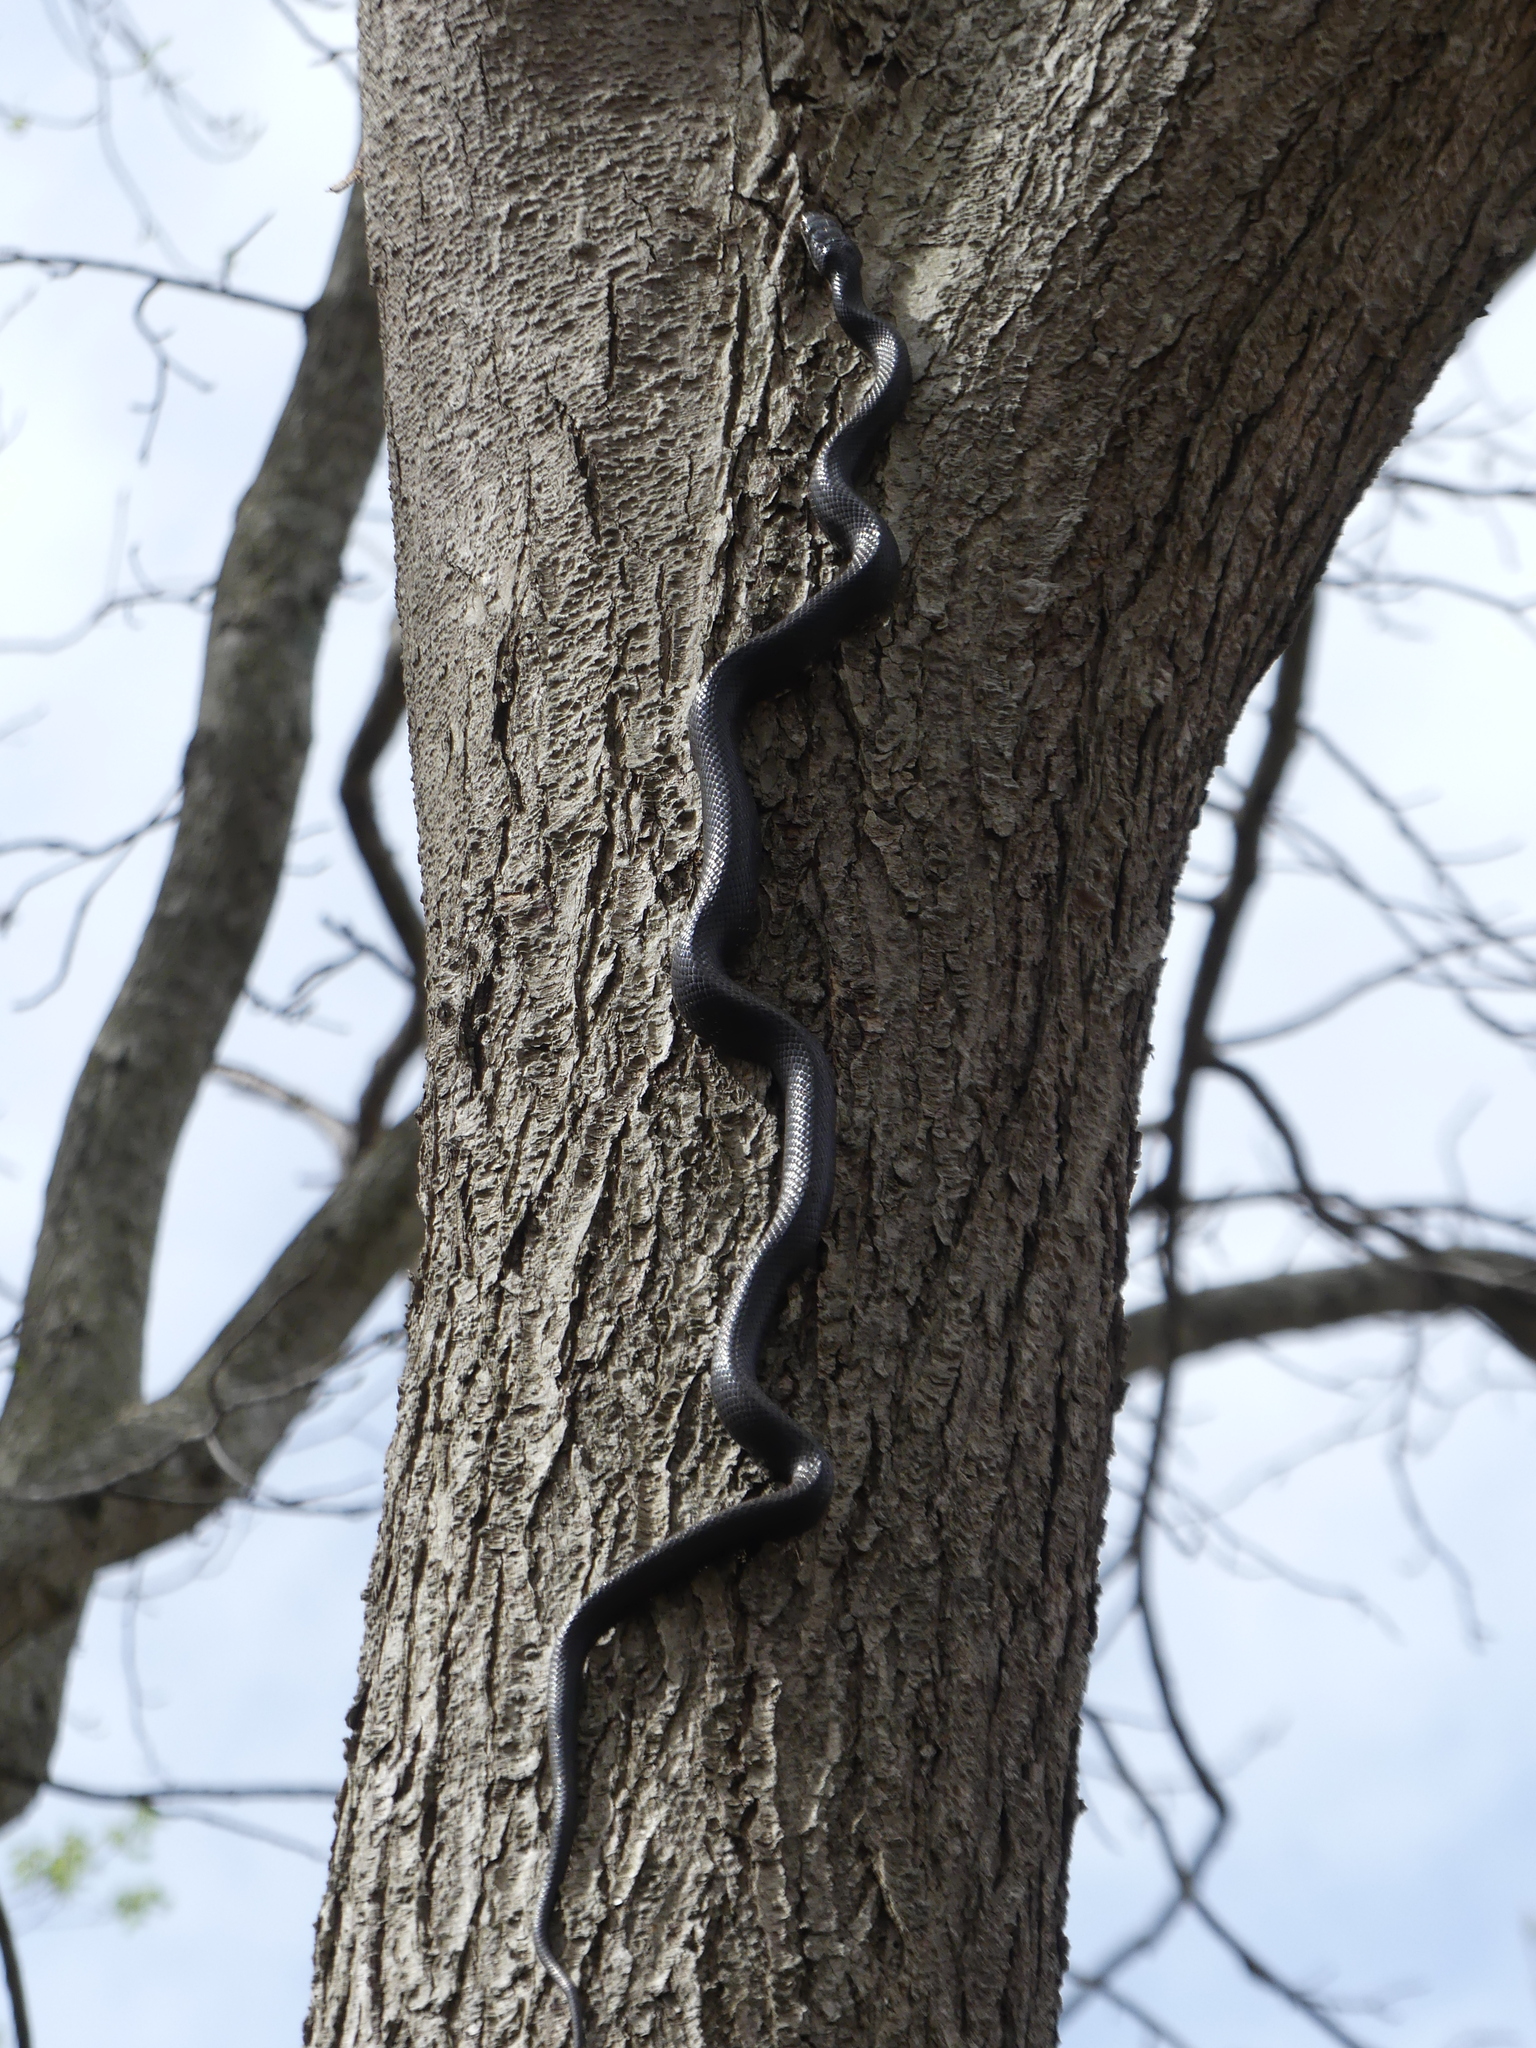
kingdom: Animalia
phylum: Chordata
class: Squamata
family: Colubridae
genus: Pantherophis
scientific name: Pantherophis alleghaniensis
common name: Eastern rat snake
